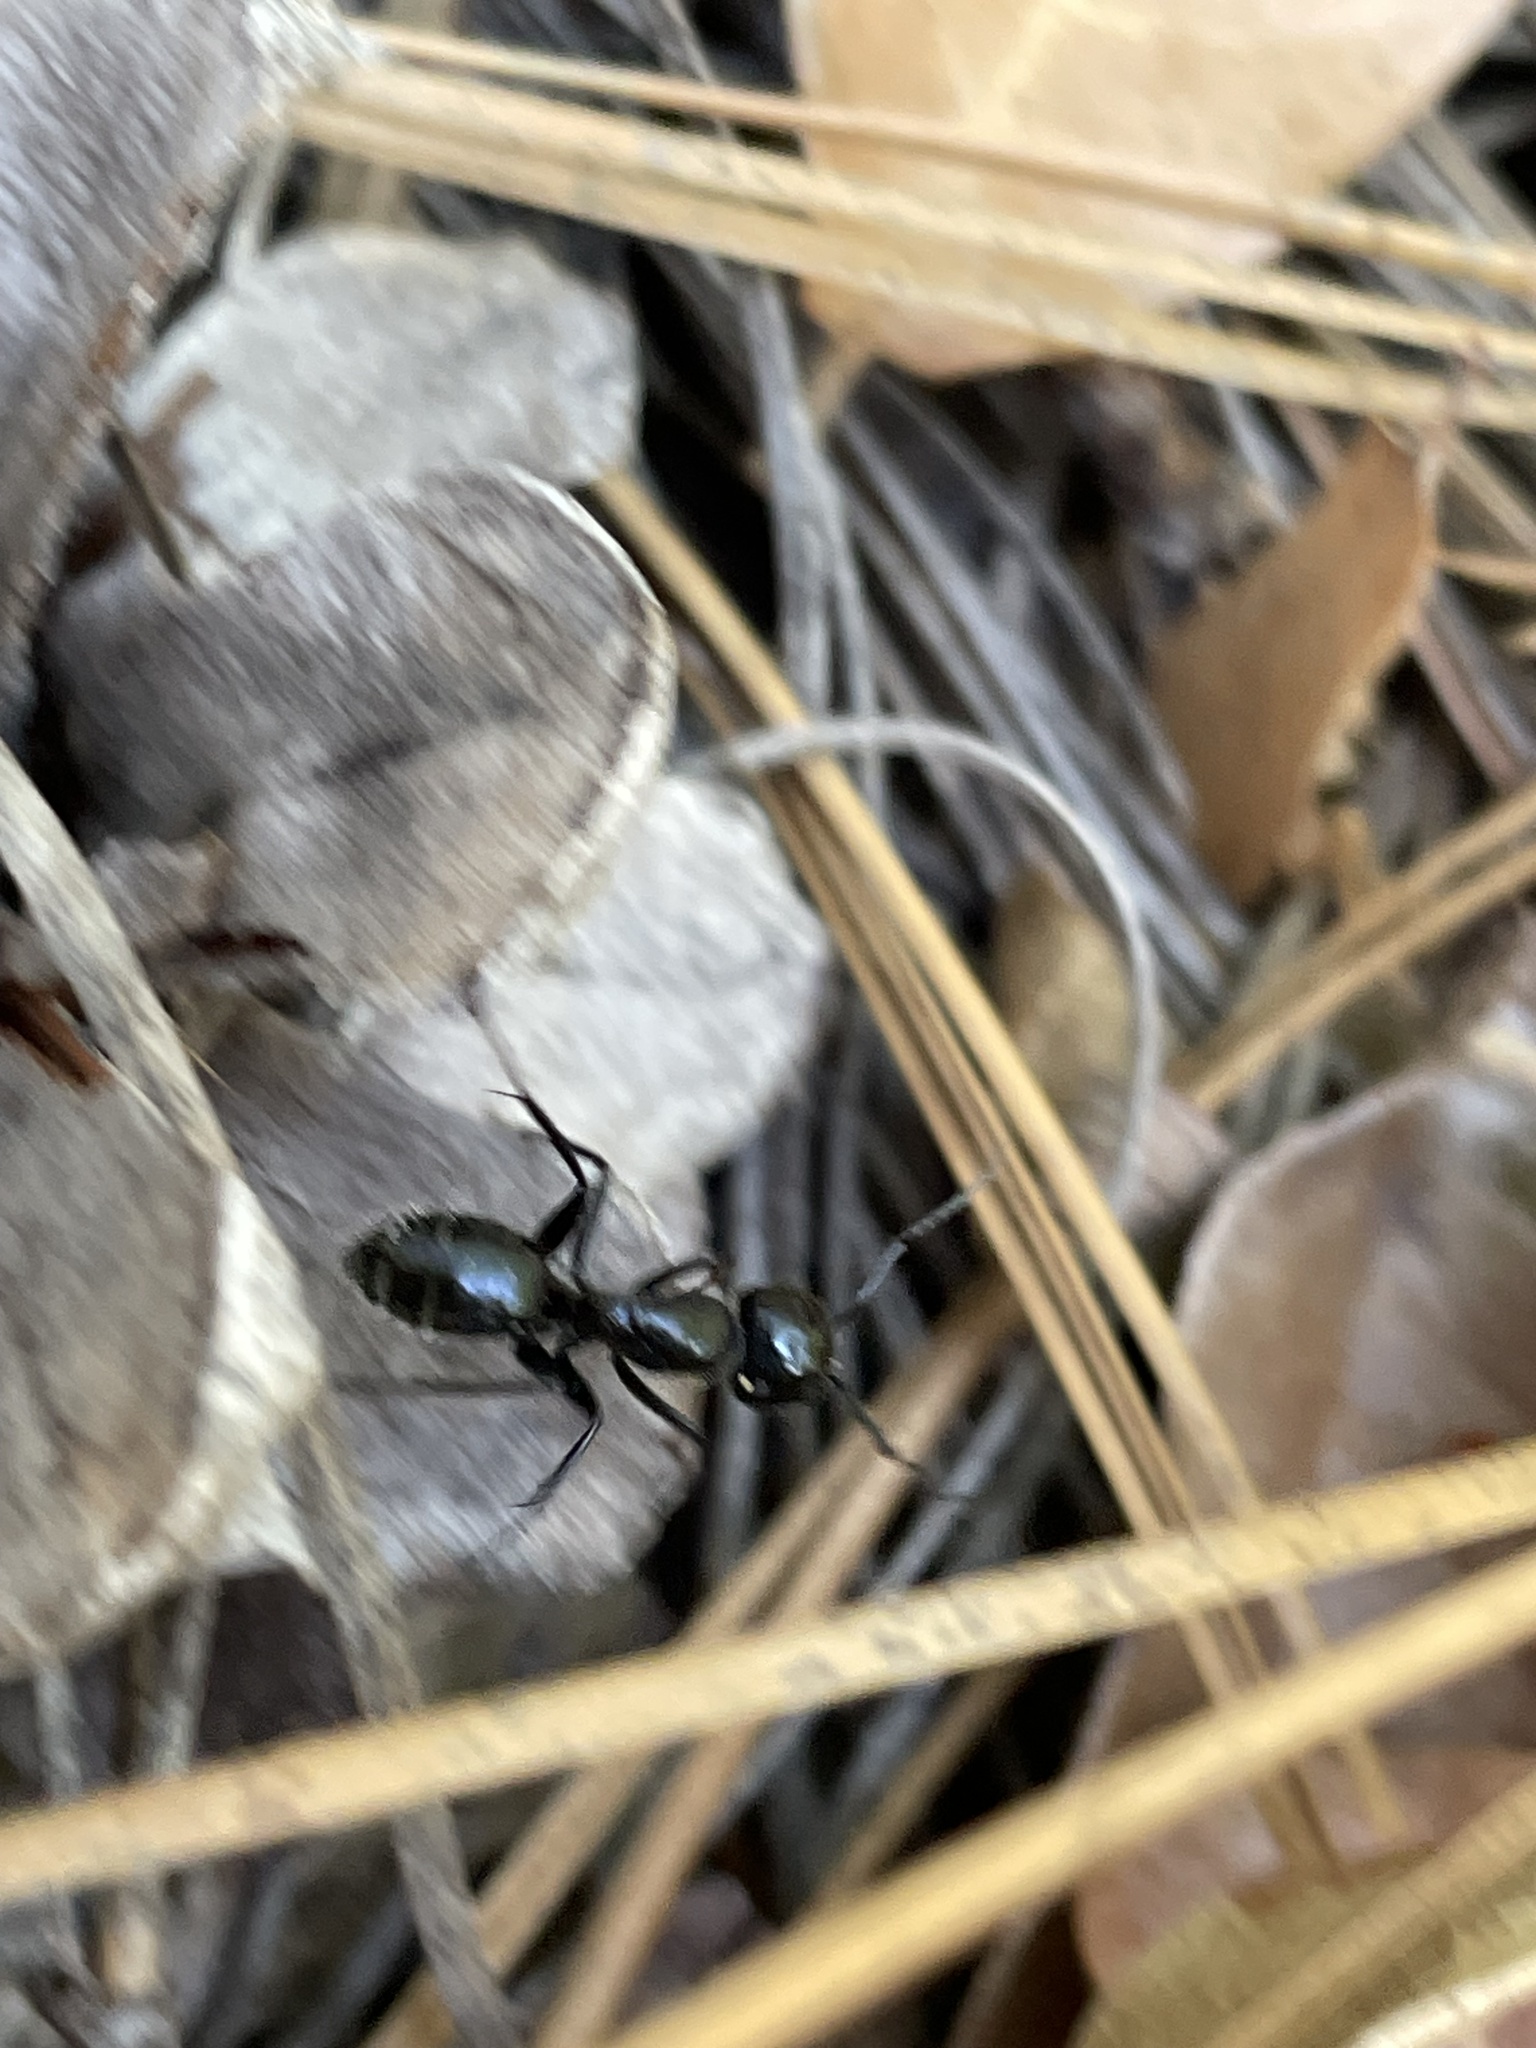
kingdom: Animalia
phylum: Arthropoda
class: Insecta
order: Hymenoptera
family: Formicidae
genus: Camponotus
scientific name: Camponotus
